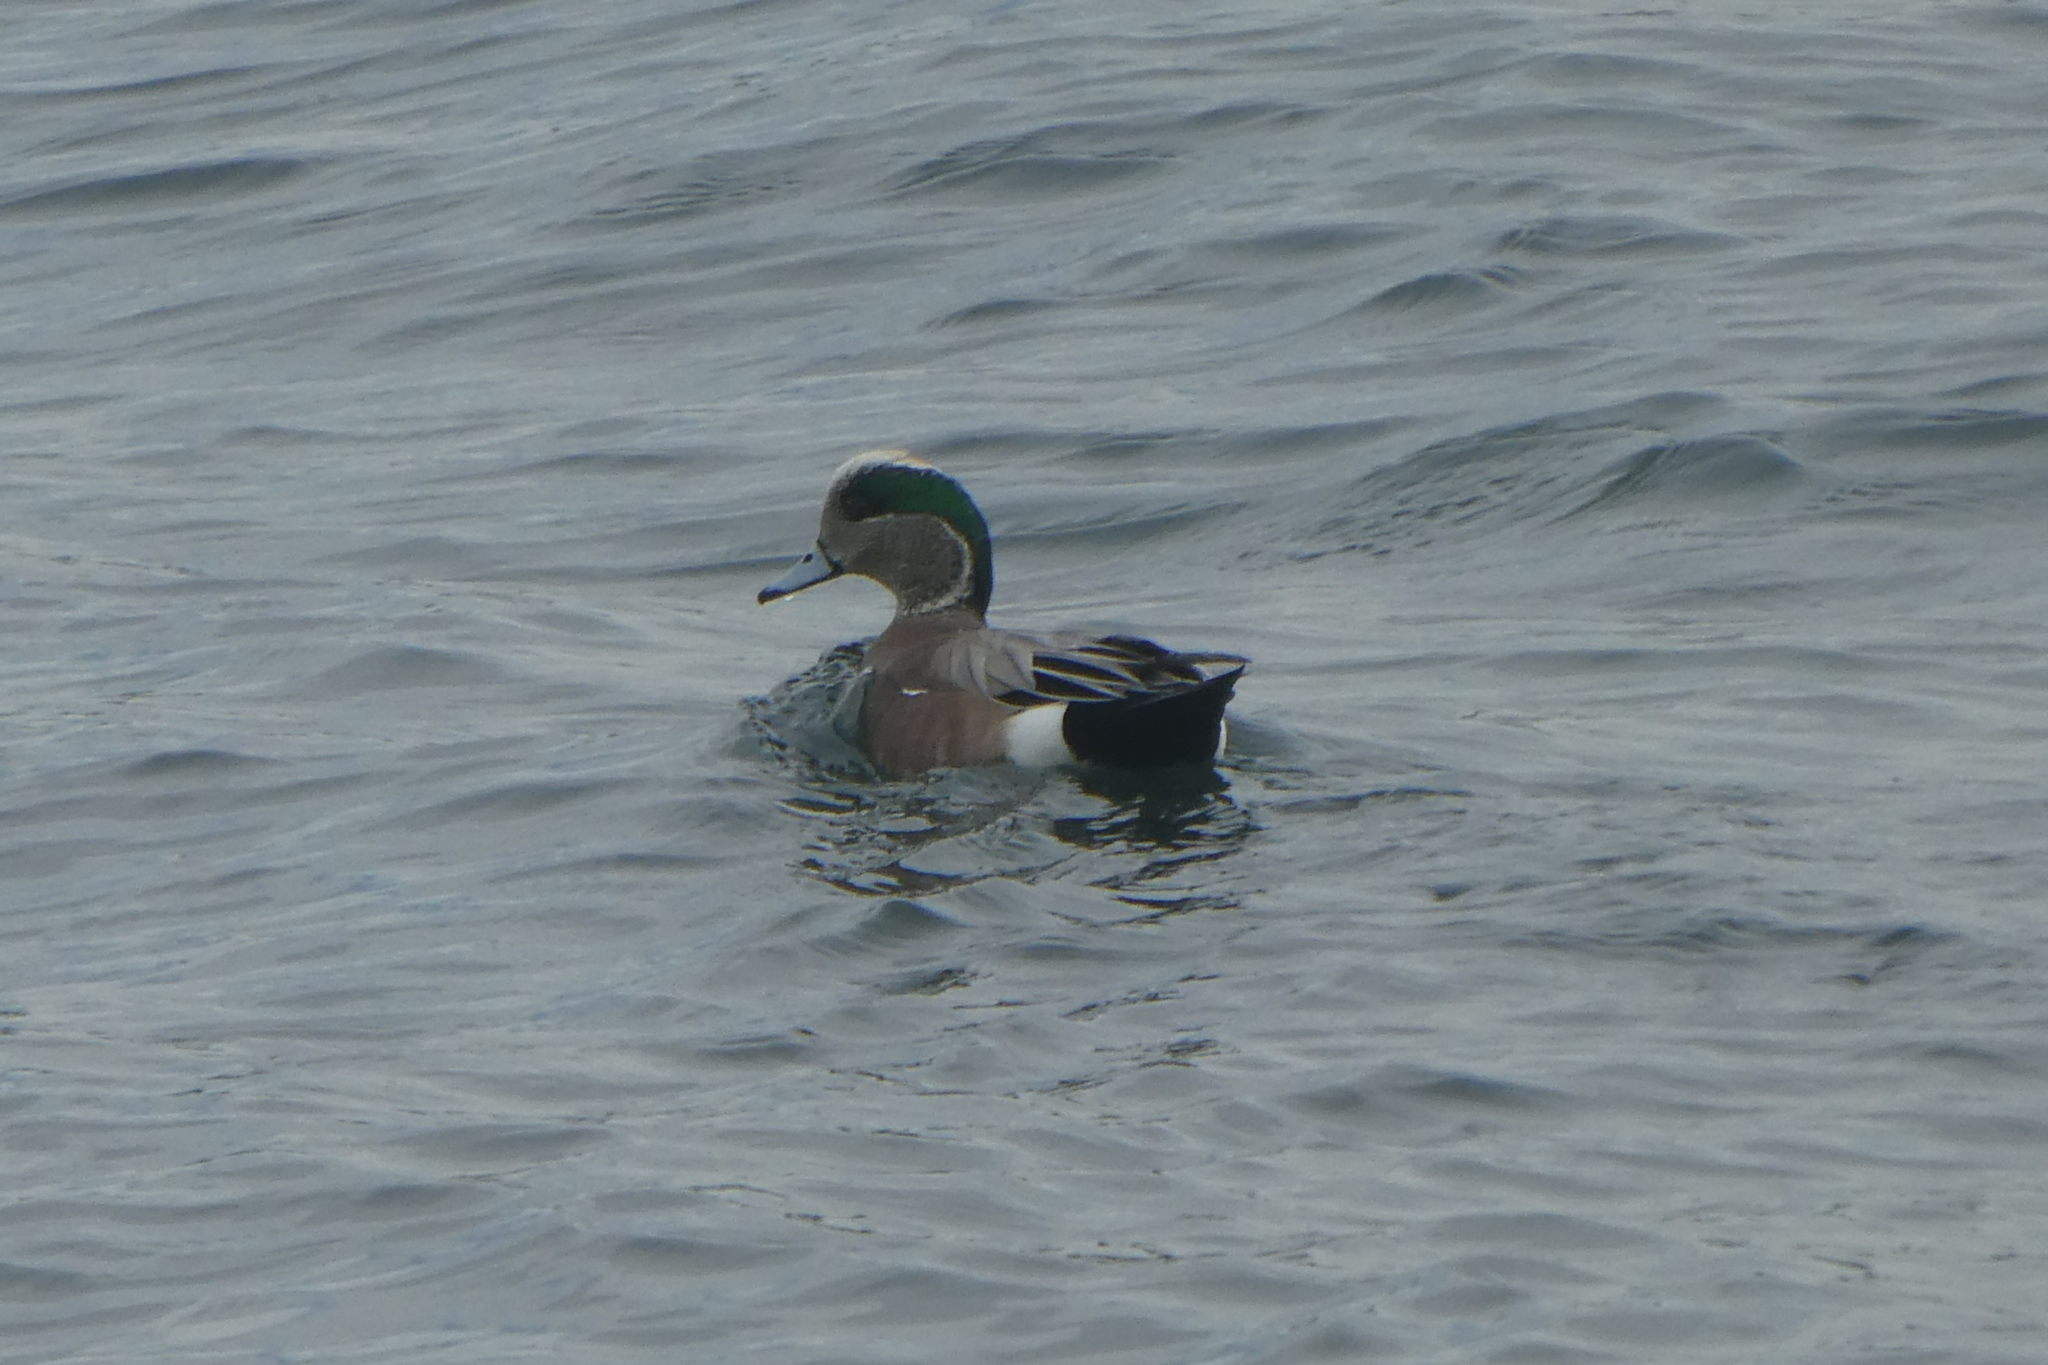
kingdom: Animalia
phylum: Chordata
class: Aves
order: Anseriformes
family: Anatidae
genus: Mareca
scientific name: Mareca americana
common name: American wigeon
